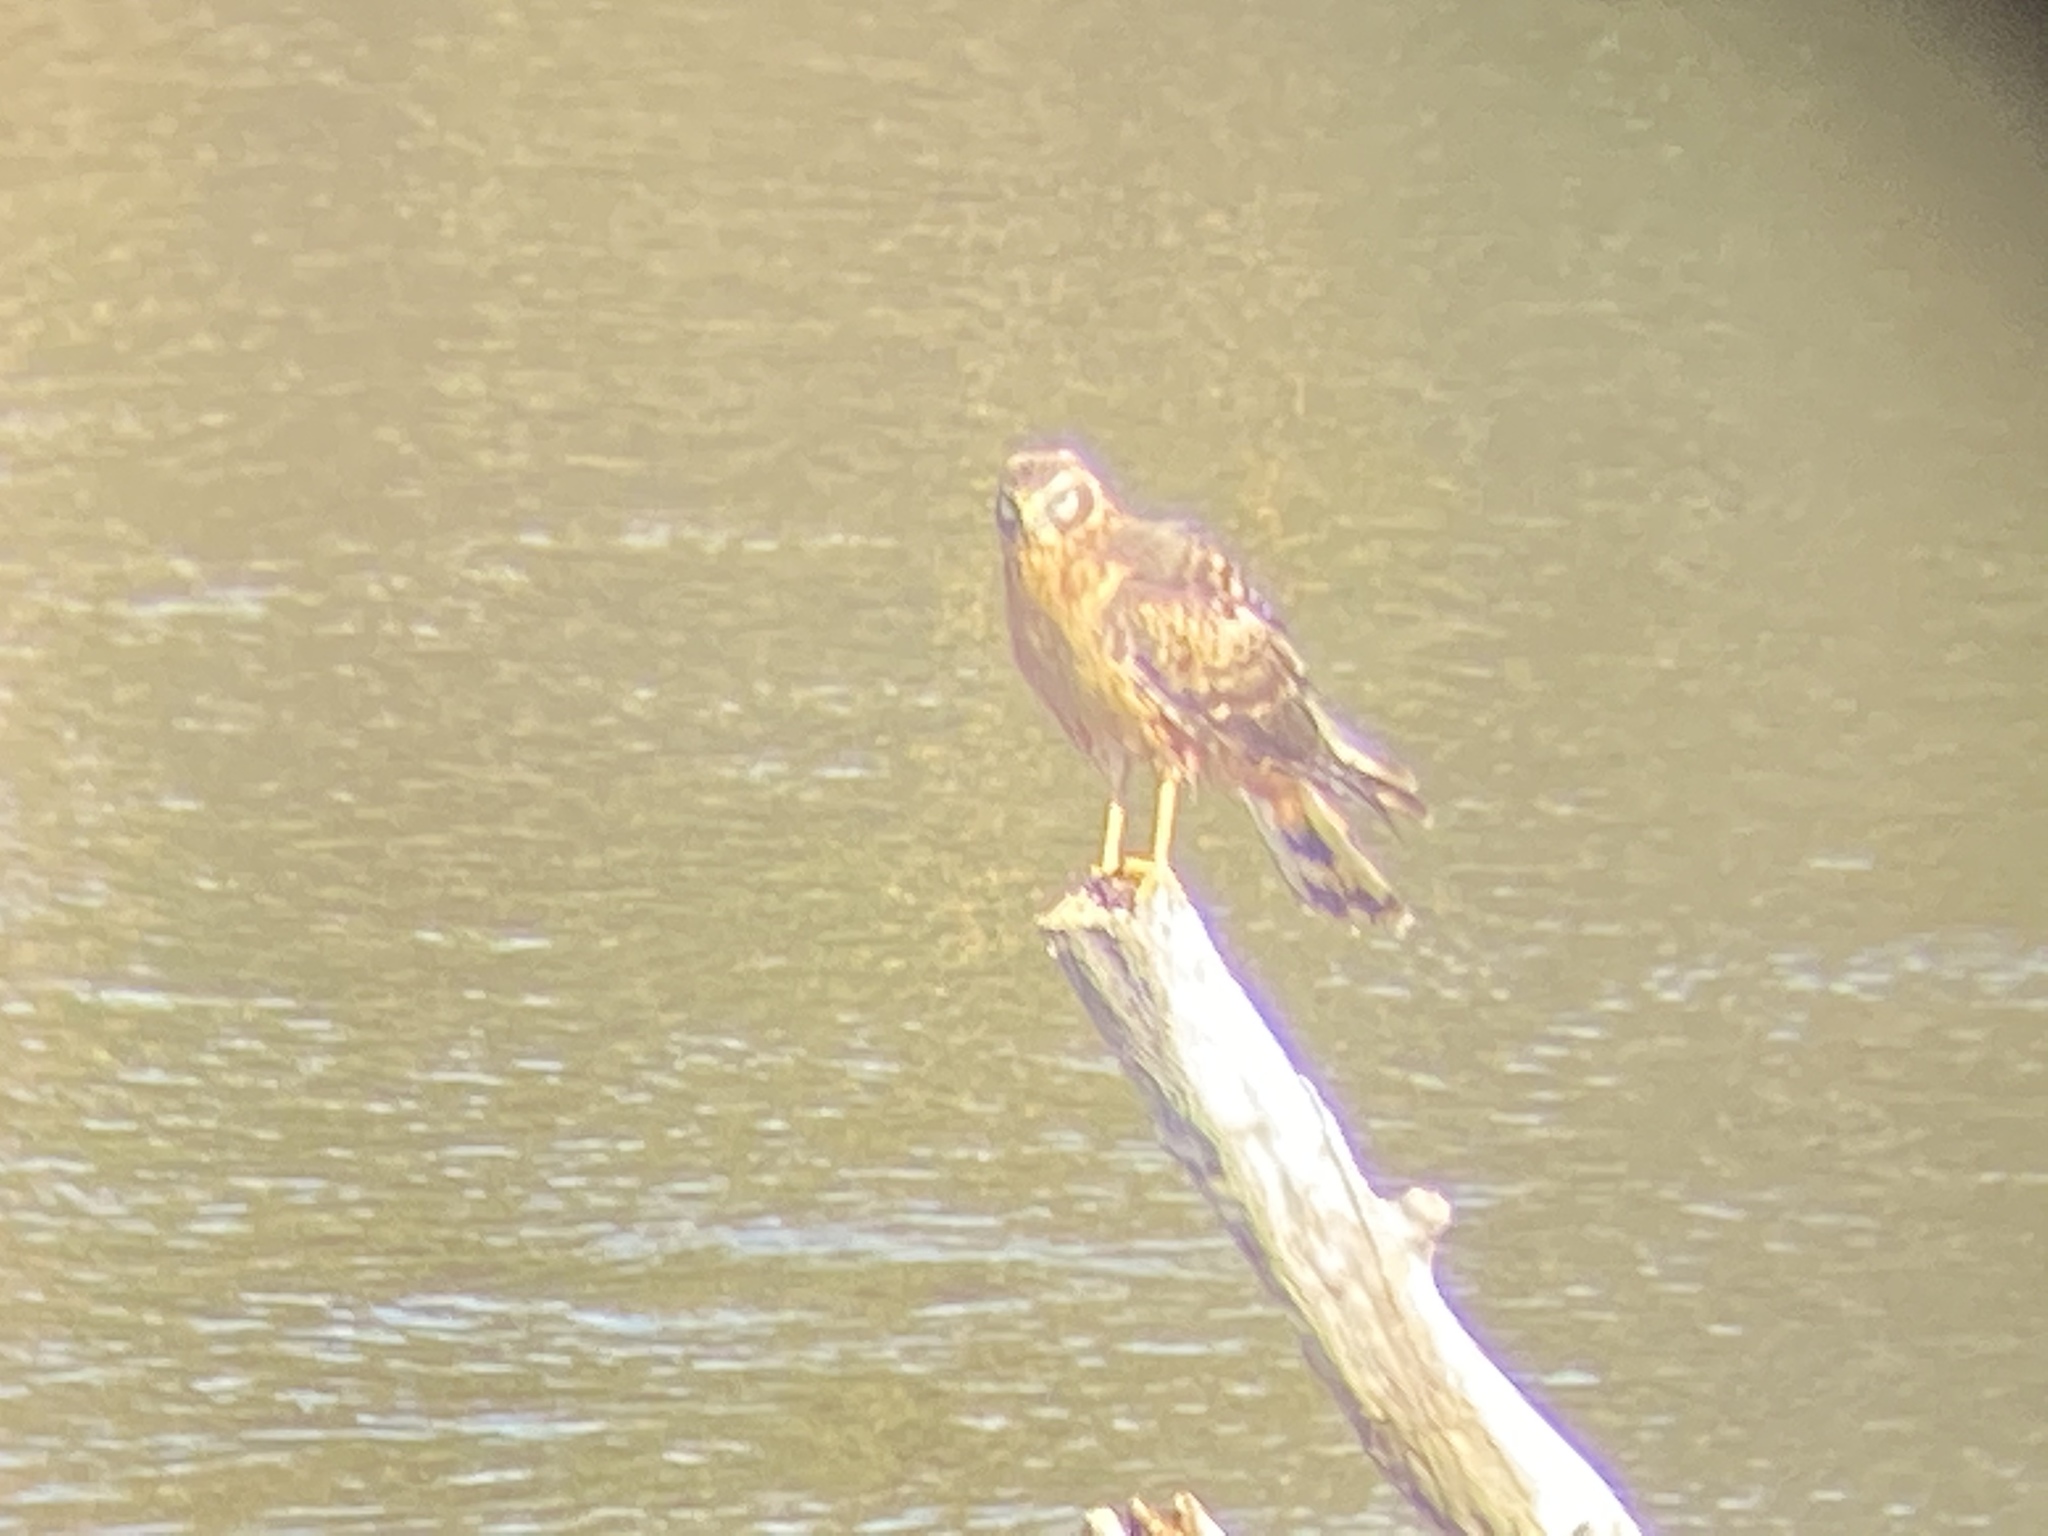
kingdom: Animalia
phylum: Chordata
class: Aves
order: Accipitriformes
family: Accipitridae
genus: Circus
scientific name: Circus cyaneus
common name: Hen harrier
